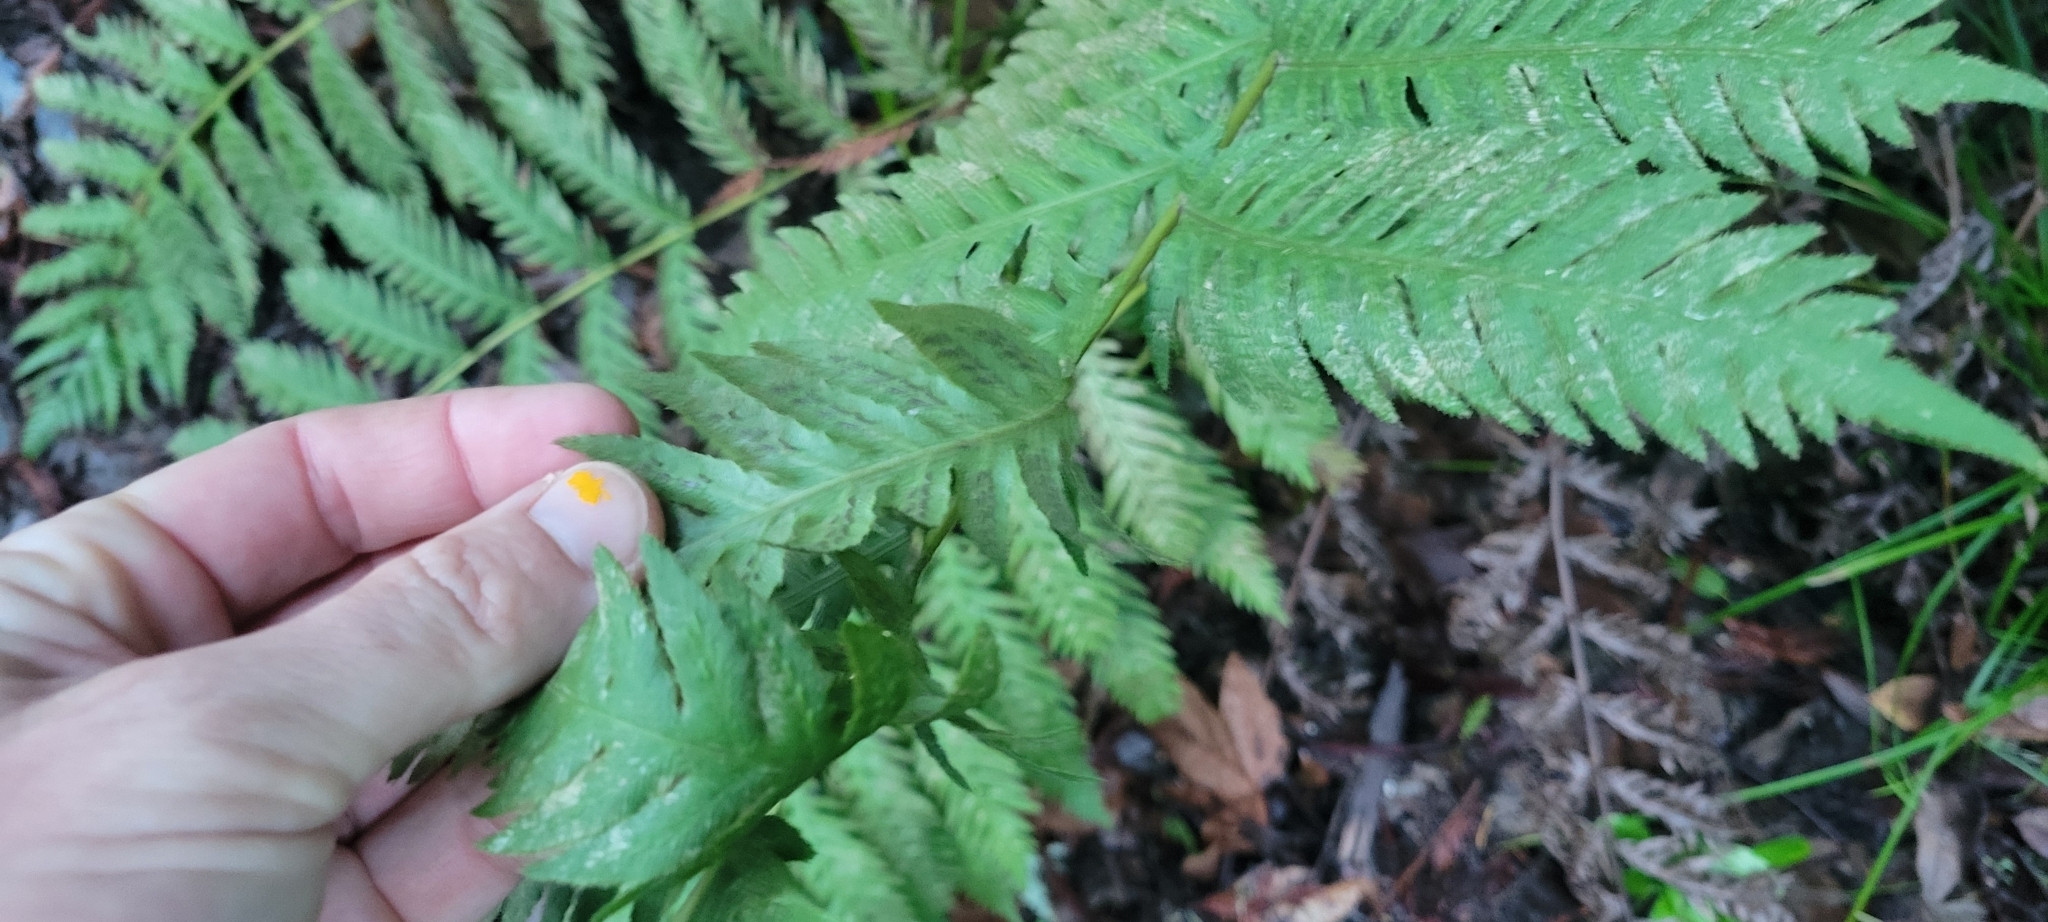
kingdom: Plantae
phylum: Tracheophyta
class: Polypodiopsida
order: Polypodiales
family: Blechnaceae
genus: Woodwardia
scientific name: Woodwardia fimbriata
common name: Giant chain fern
